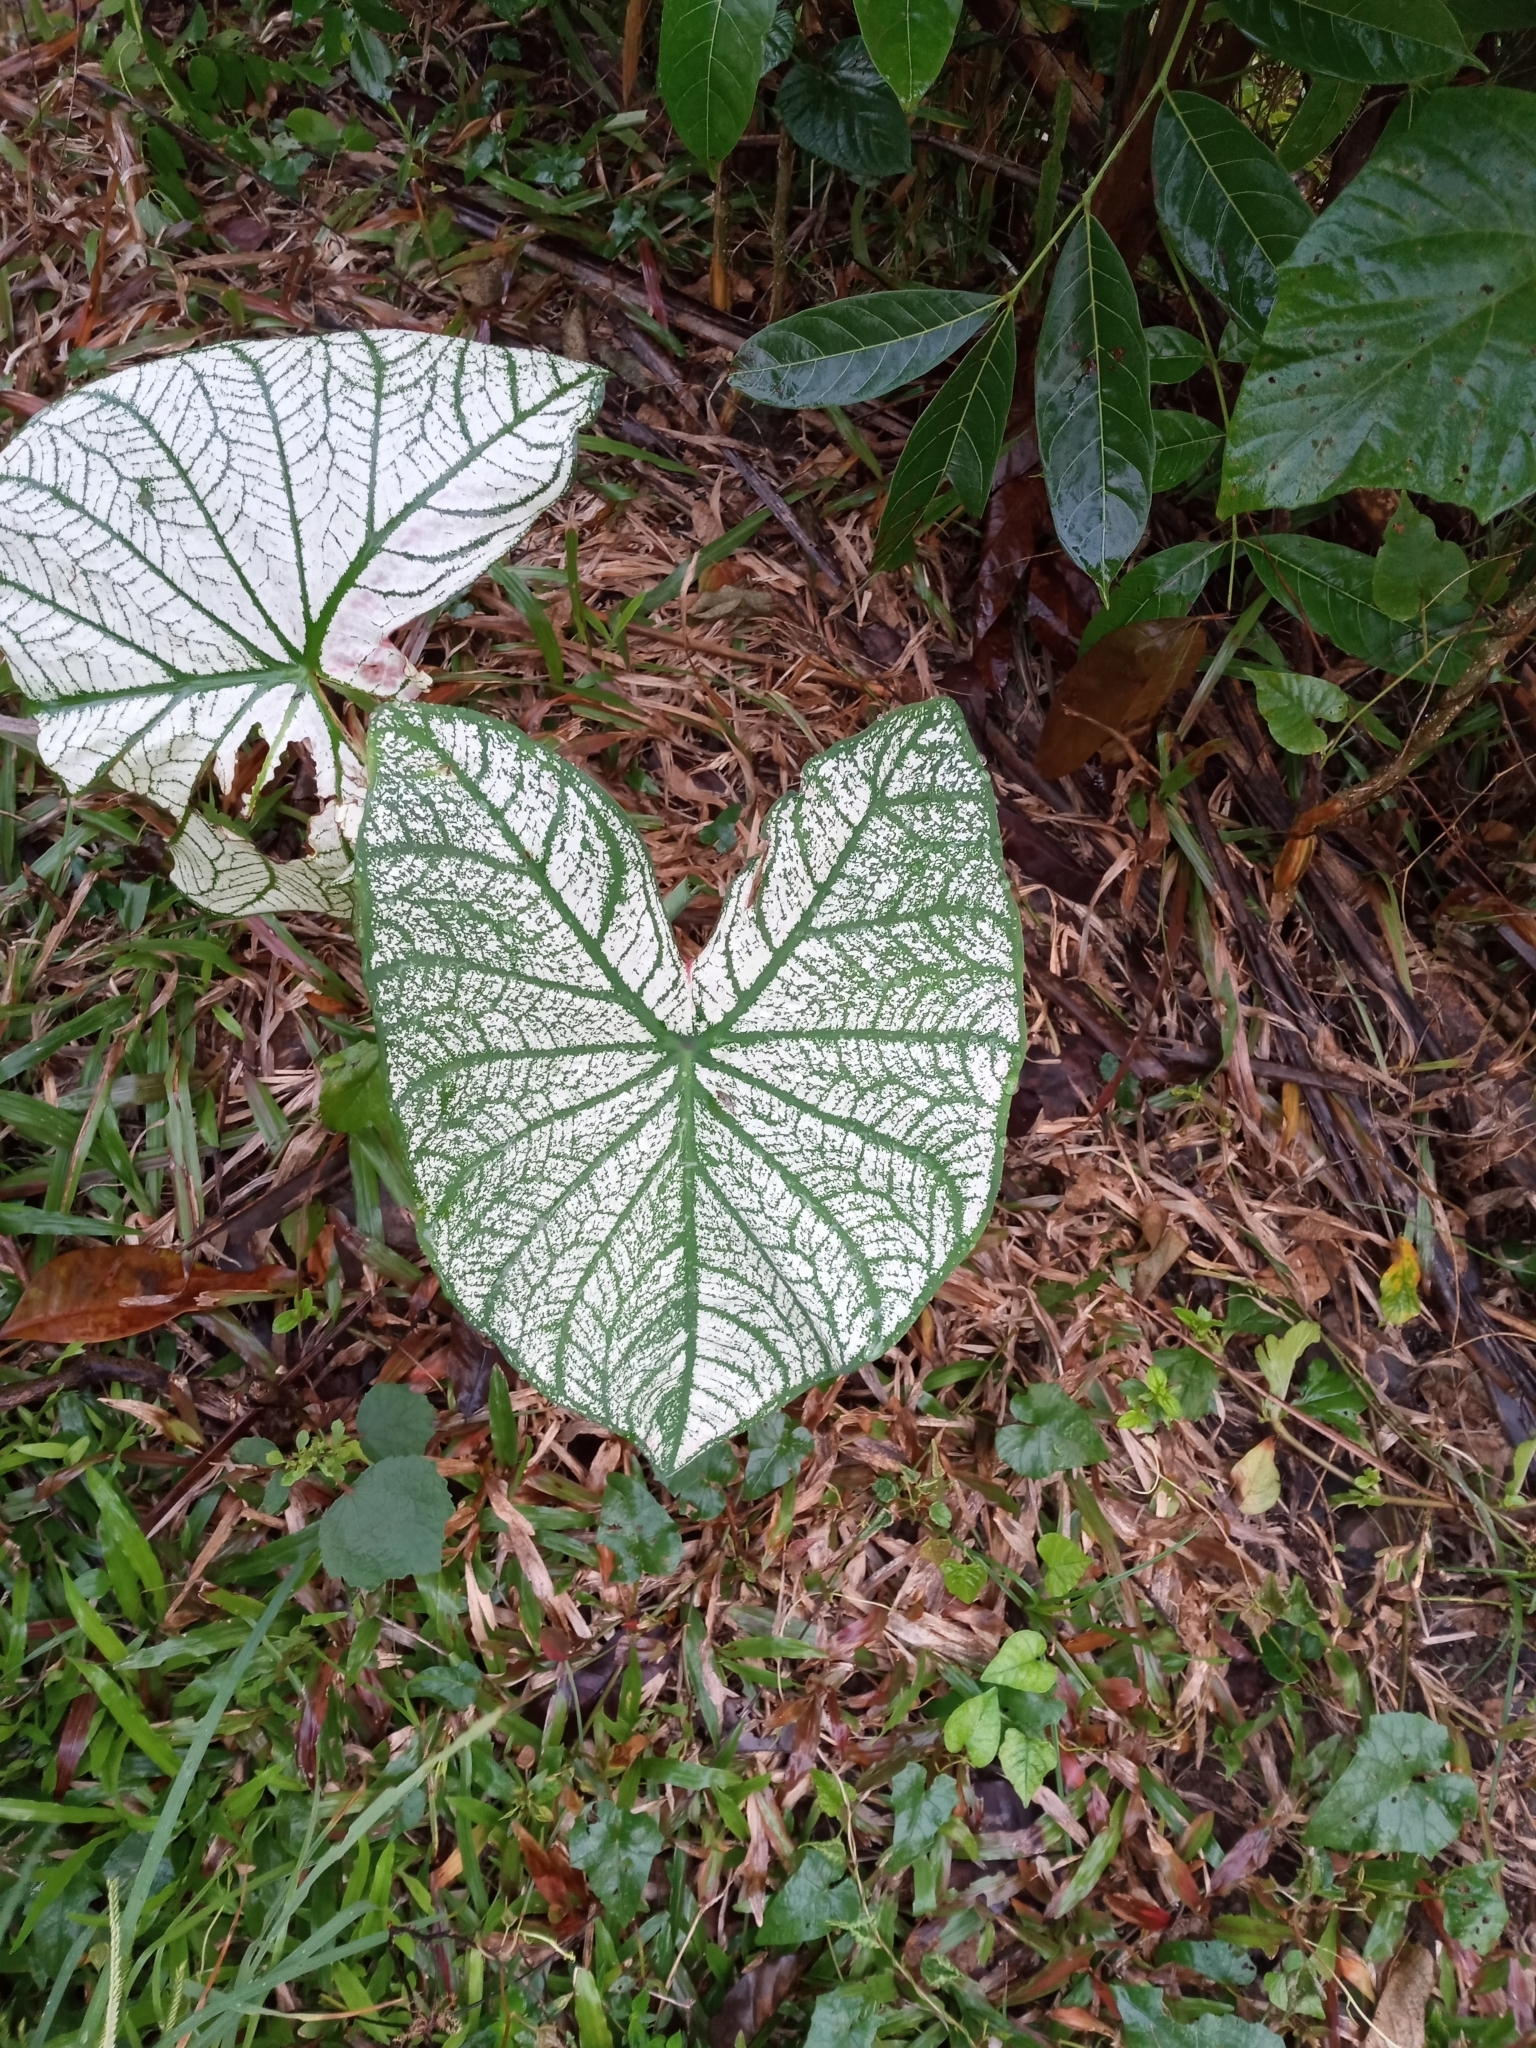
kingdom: Plantae
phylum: Tracheophyta
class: Liliopsida
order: Alismatales
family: Araceae
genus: Caladium
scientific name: Caladium bicolor
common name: Artist's pallet
